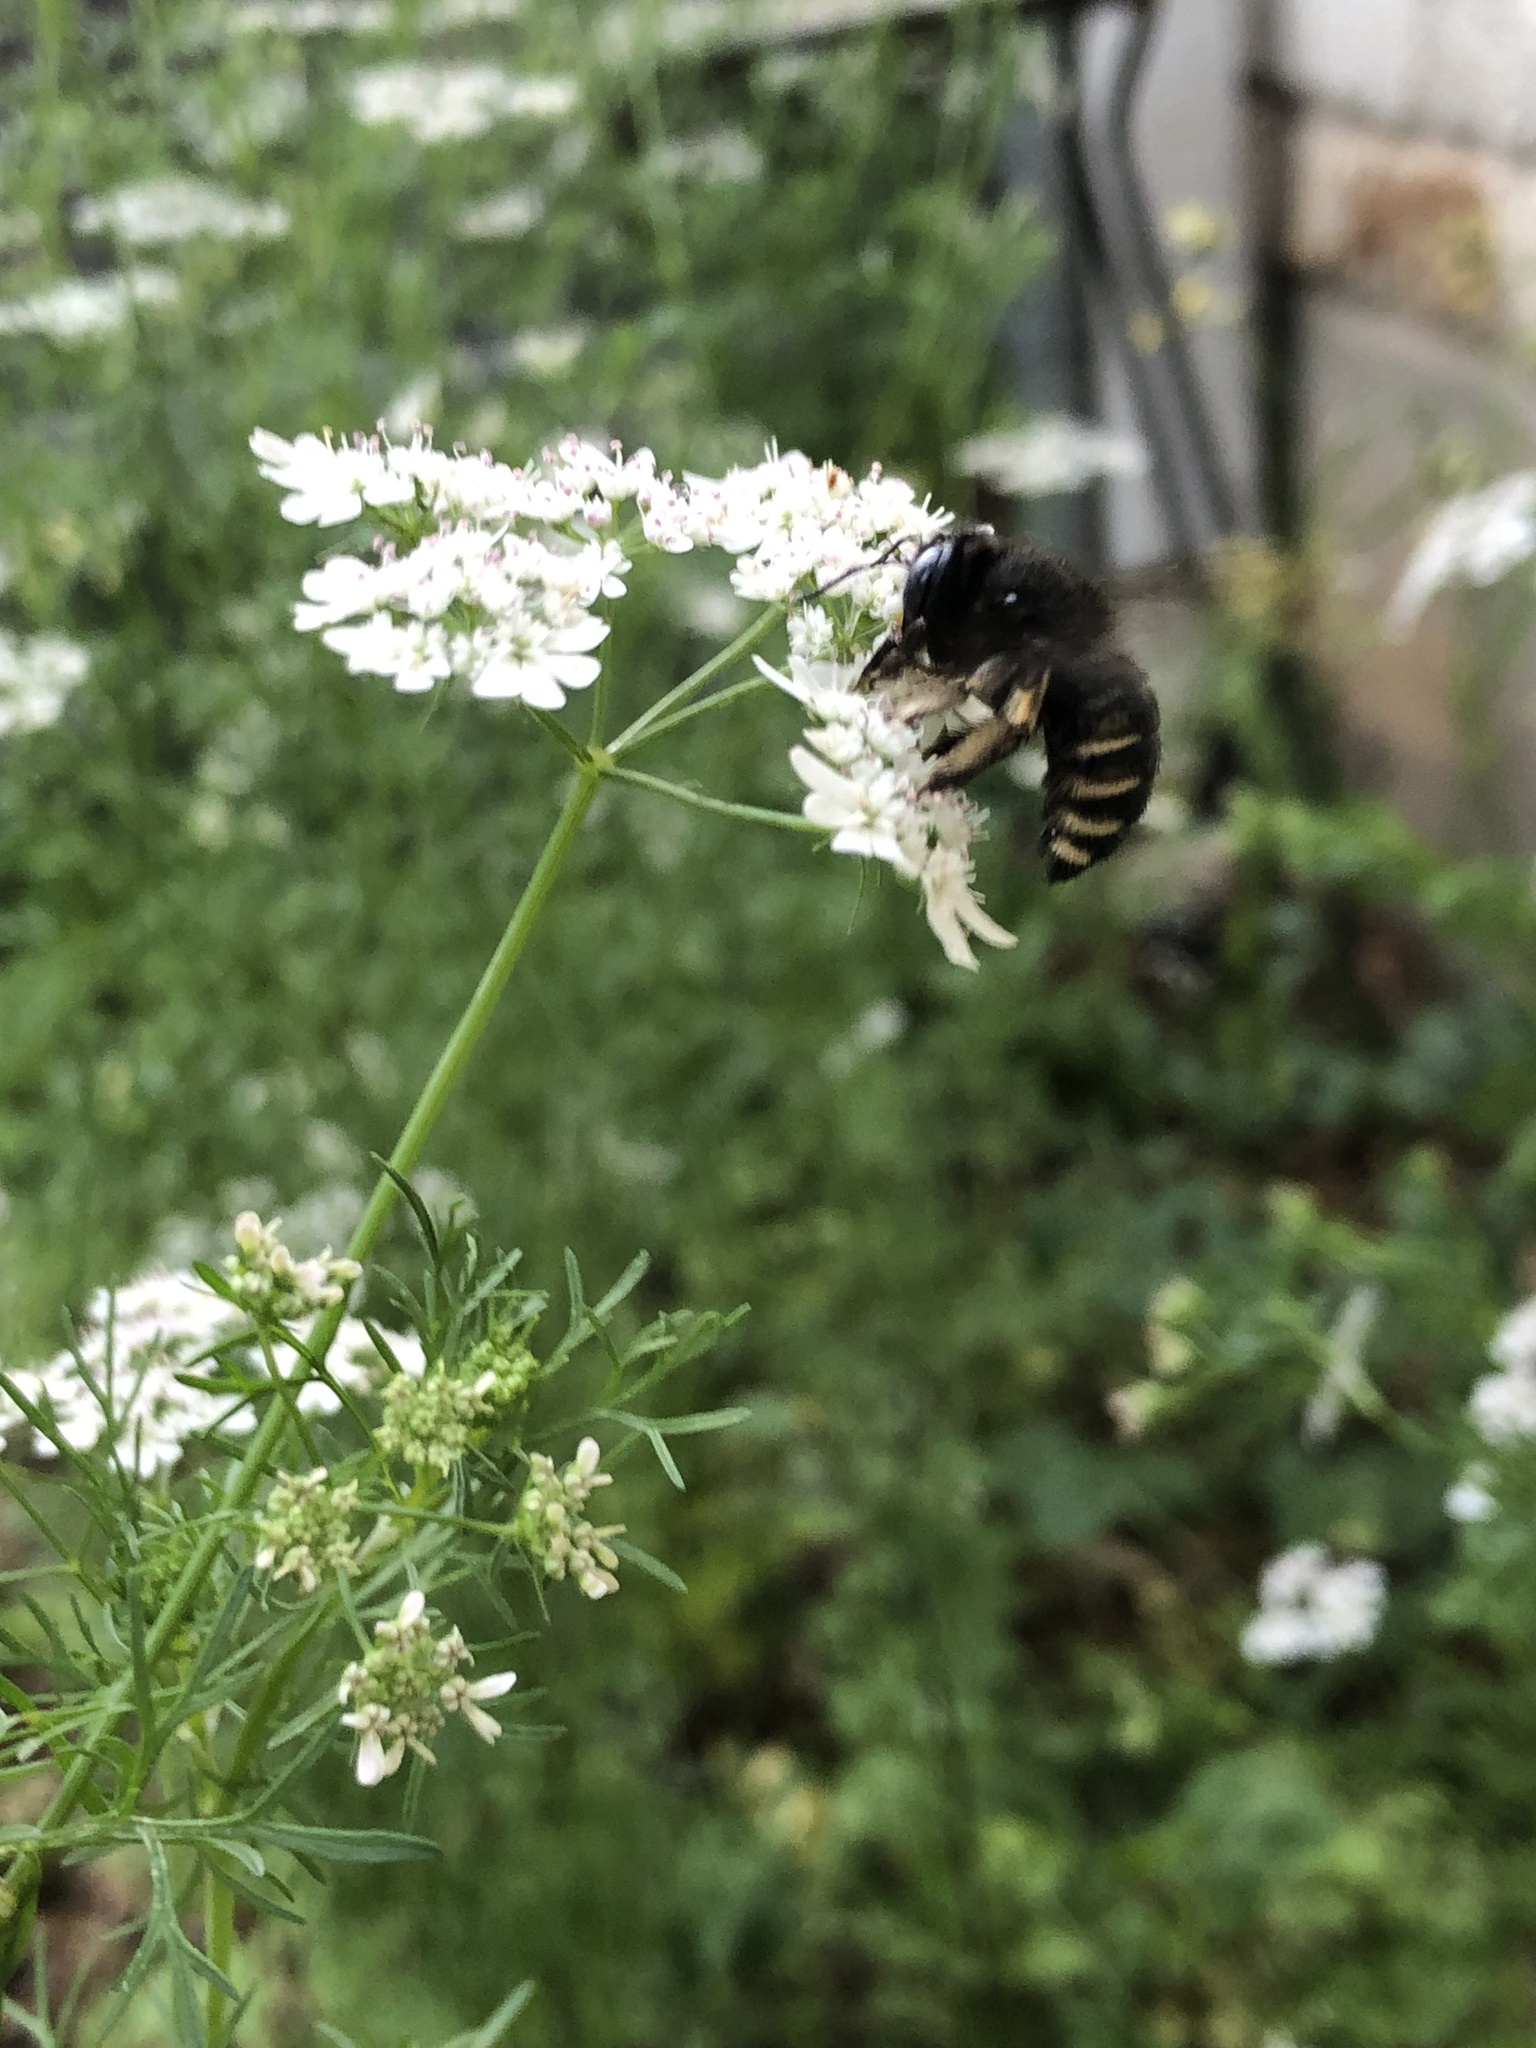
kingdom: Animalia
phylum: Arthropoda
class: Insecta
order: Hymenoptera
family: Apidae
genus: Xylocopa
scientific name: Xylocopa tabaniformis
